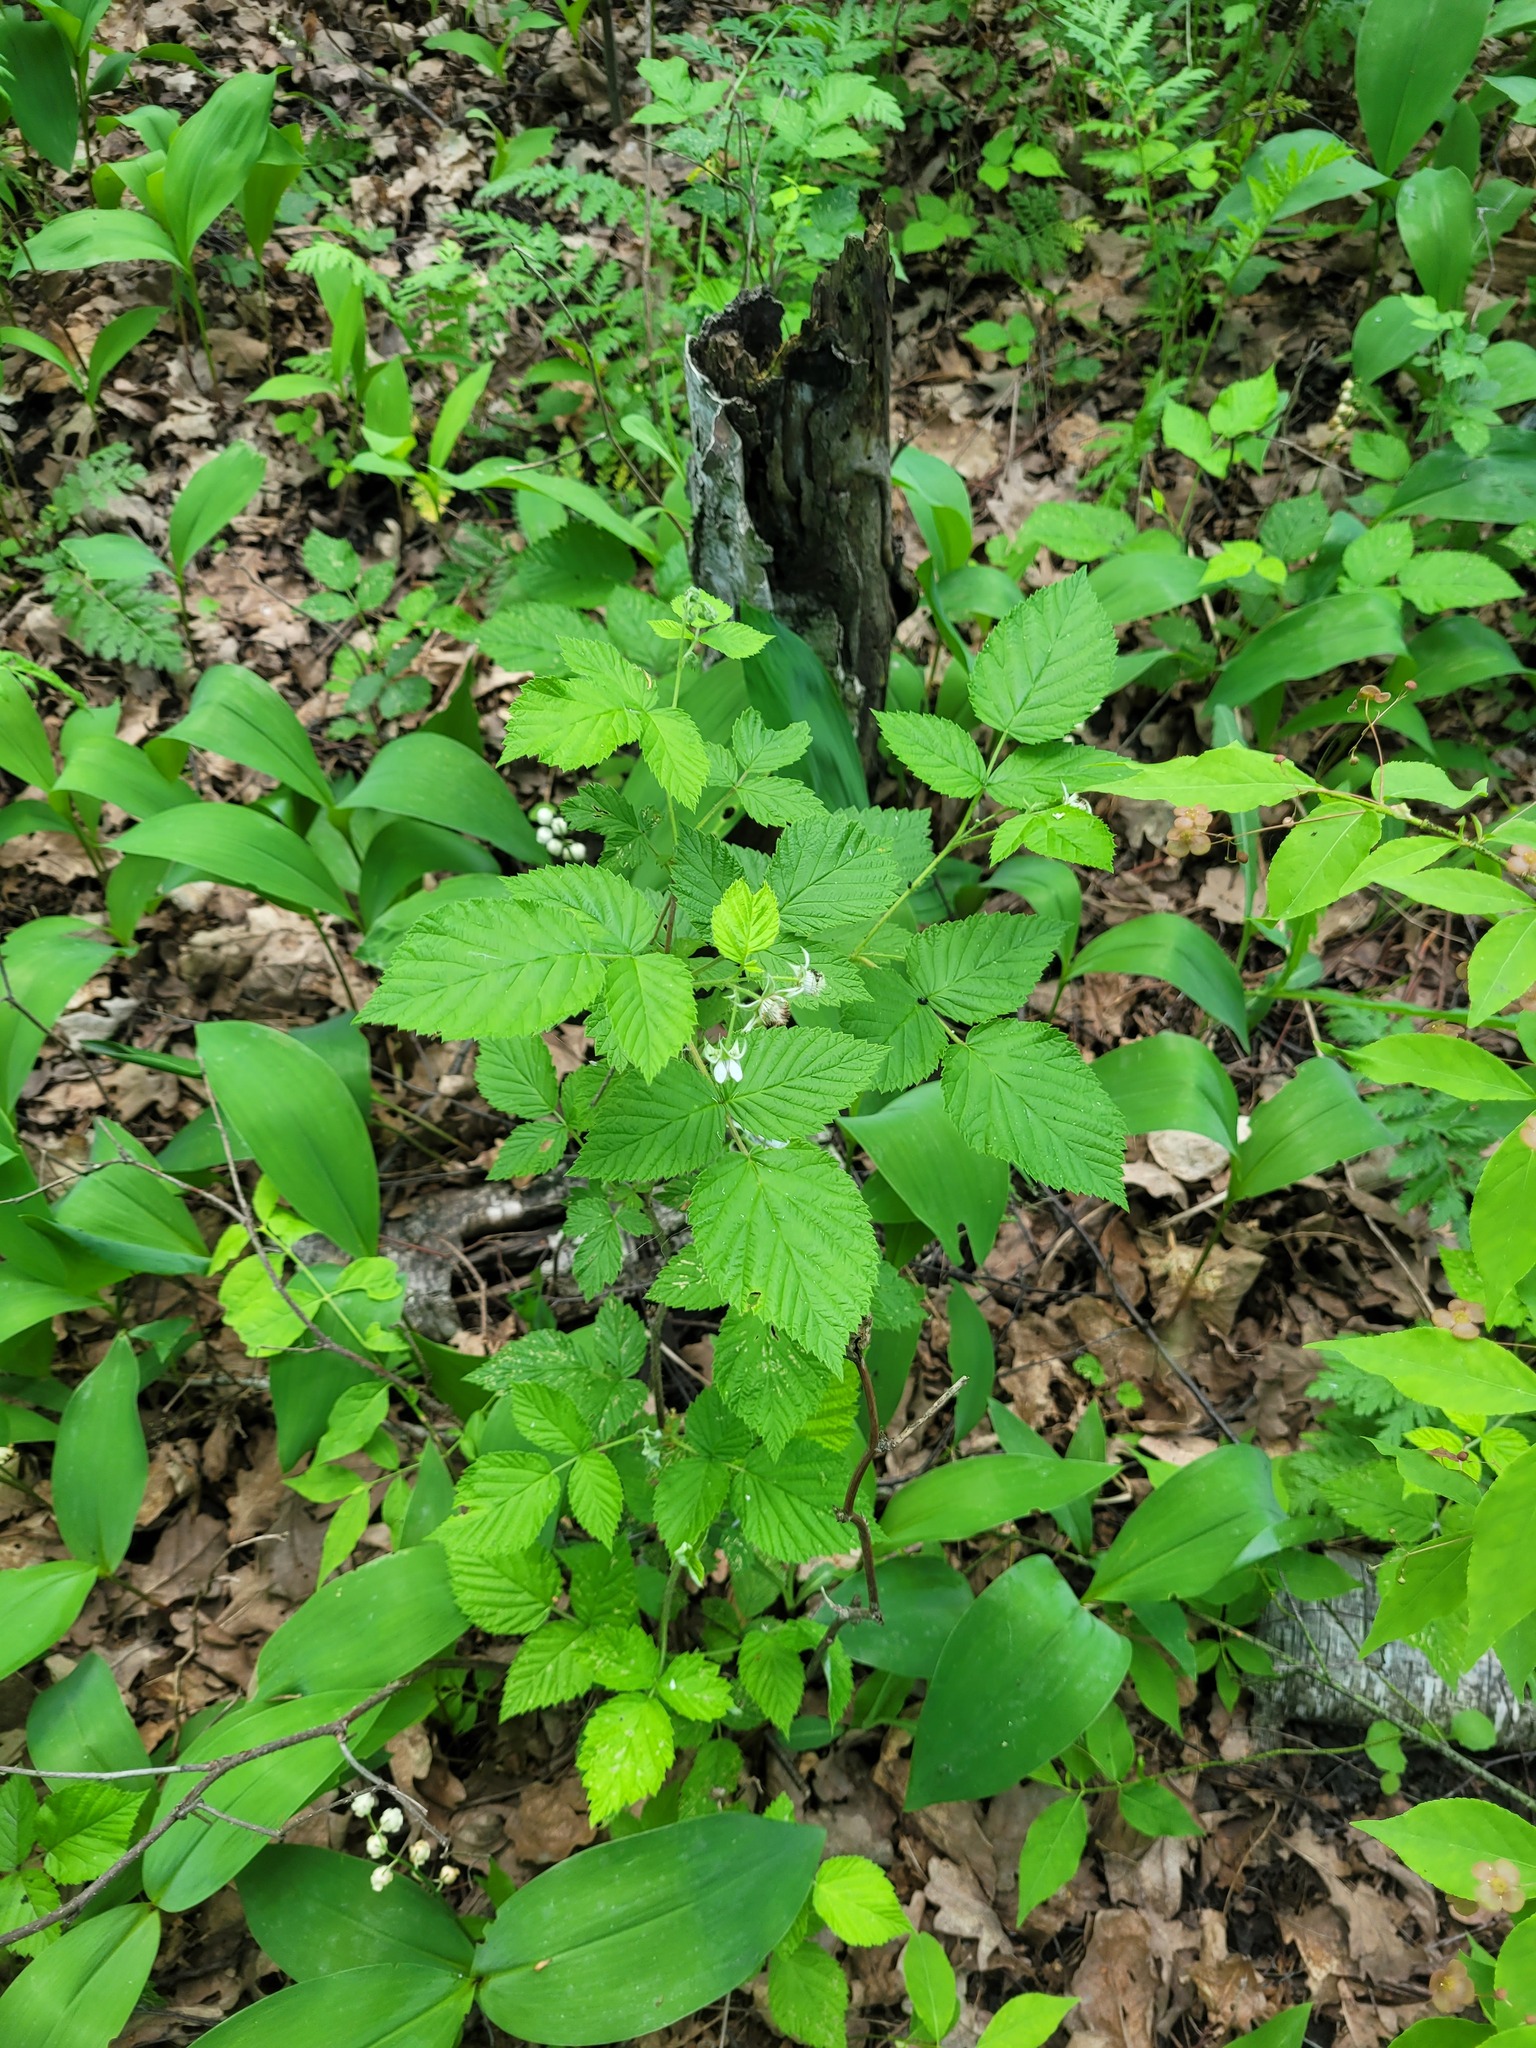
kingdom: Plantae
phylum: Tracheophyta
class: Magnoliopsida
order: Rosales
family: Rosaceae
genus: Rubus
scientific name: Rubus idaeus
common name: Raspberry
